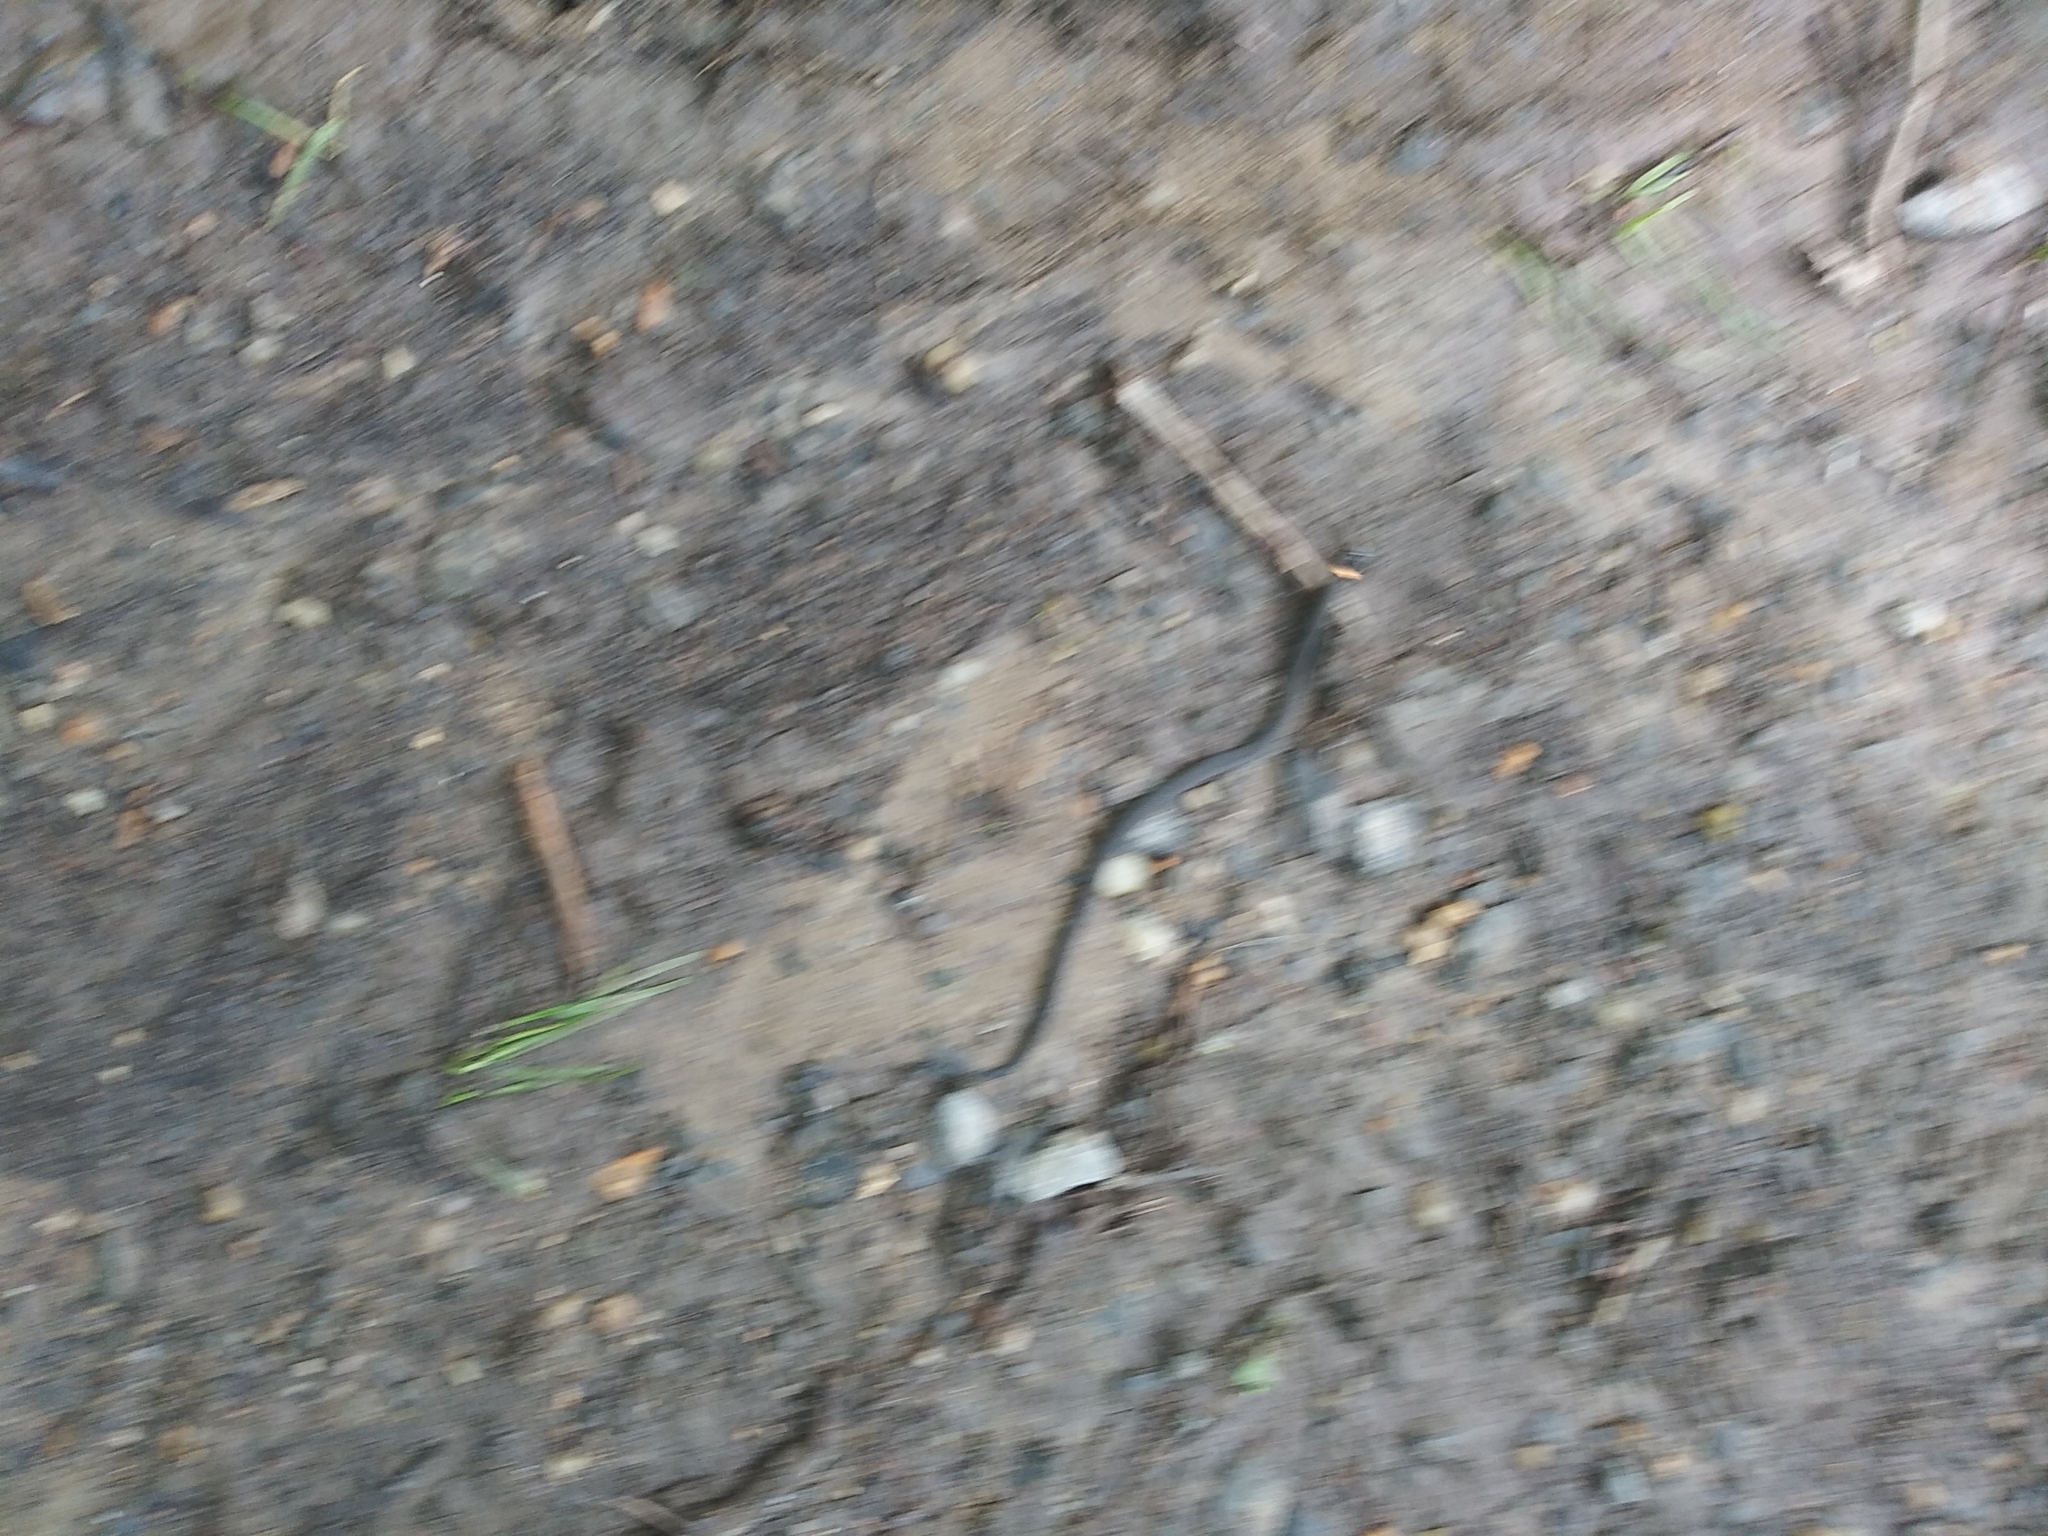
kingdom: Animalia
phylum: Chordata
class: Squamata
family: Colubridae
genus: Diadophis
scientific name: Diadophis punctatus
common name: Ringneck snake
